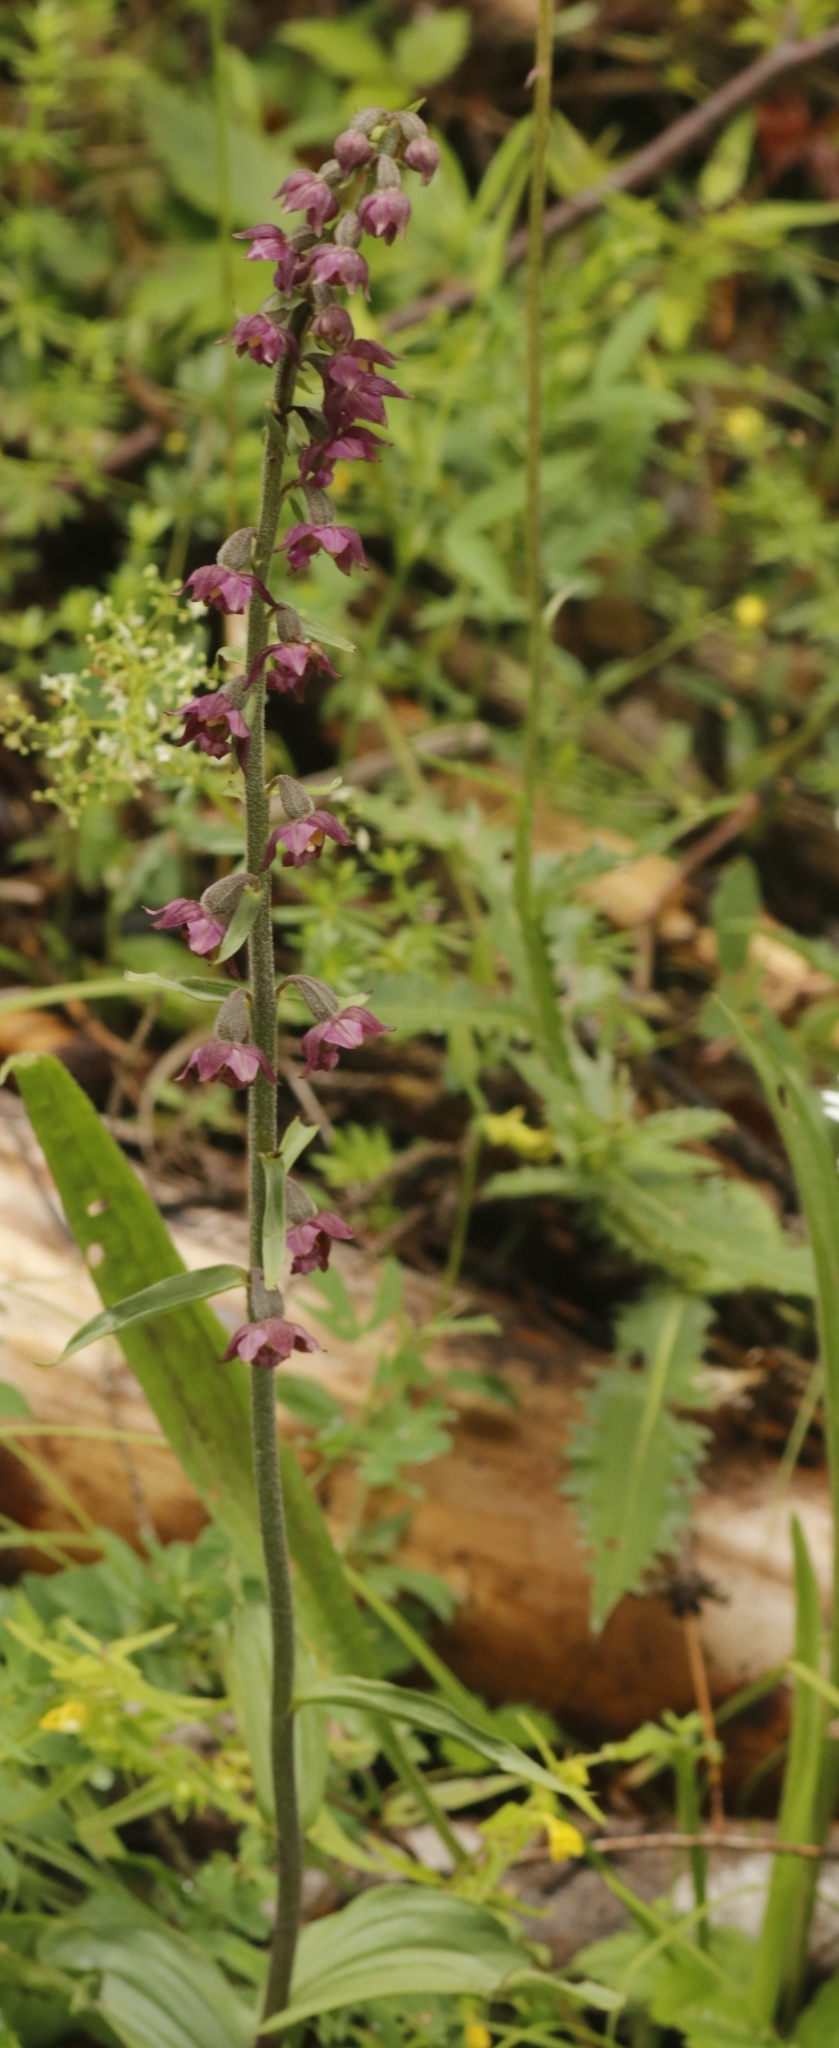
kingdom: Plantae
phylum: Tracheophyta
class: Liliopsida
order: Asparagales
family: Orchidaceae
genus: Epipactis
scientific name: Epipactis atrorubens
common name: Dark-red helleborine
